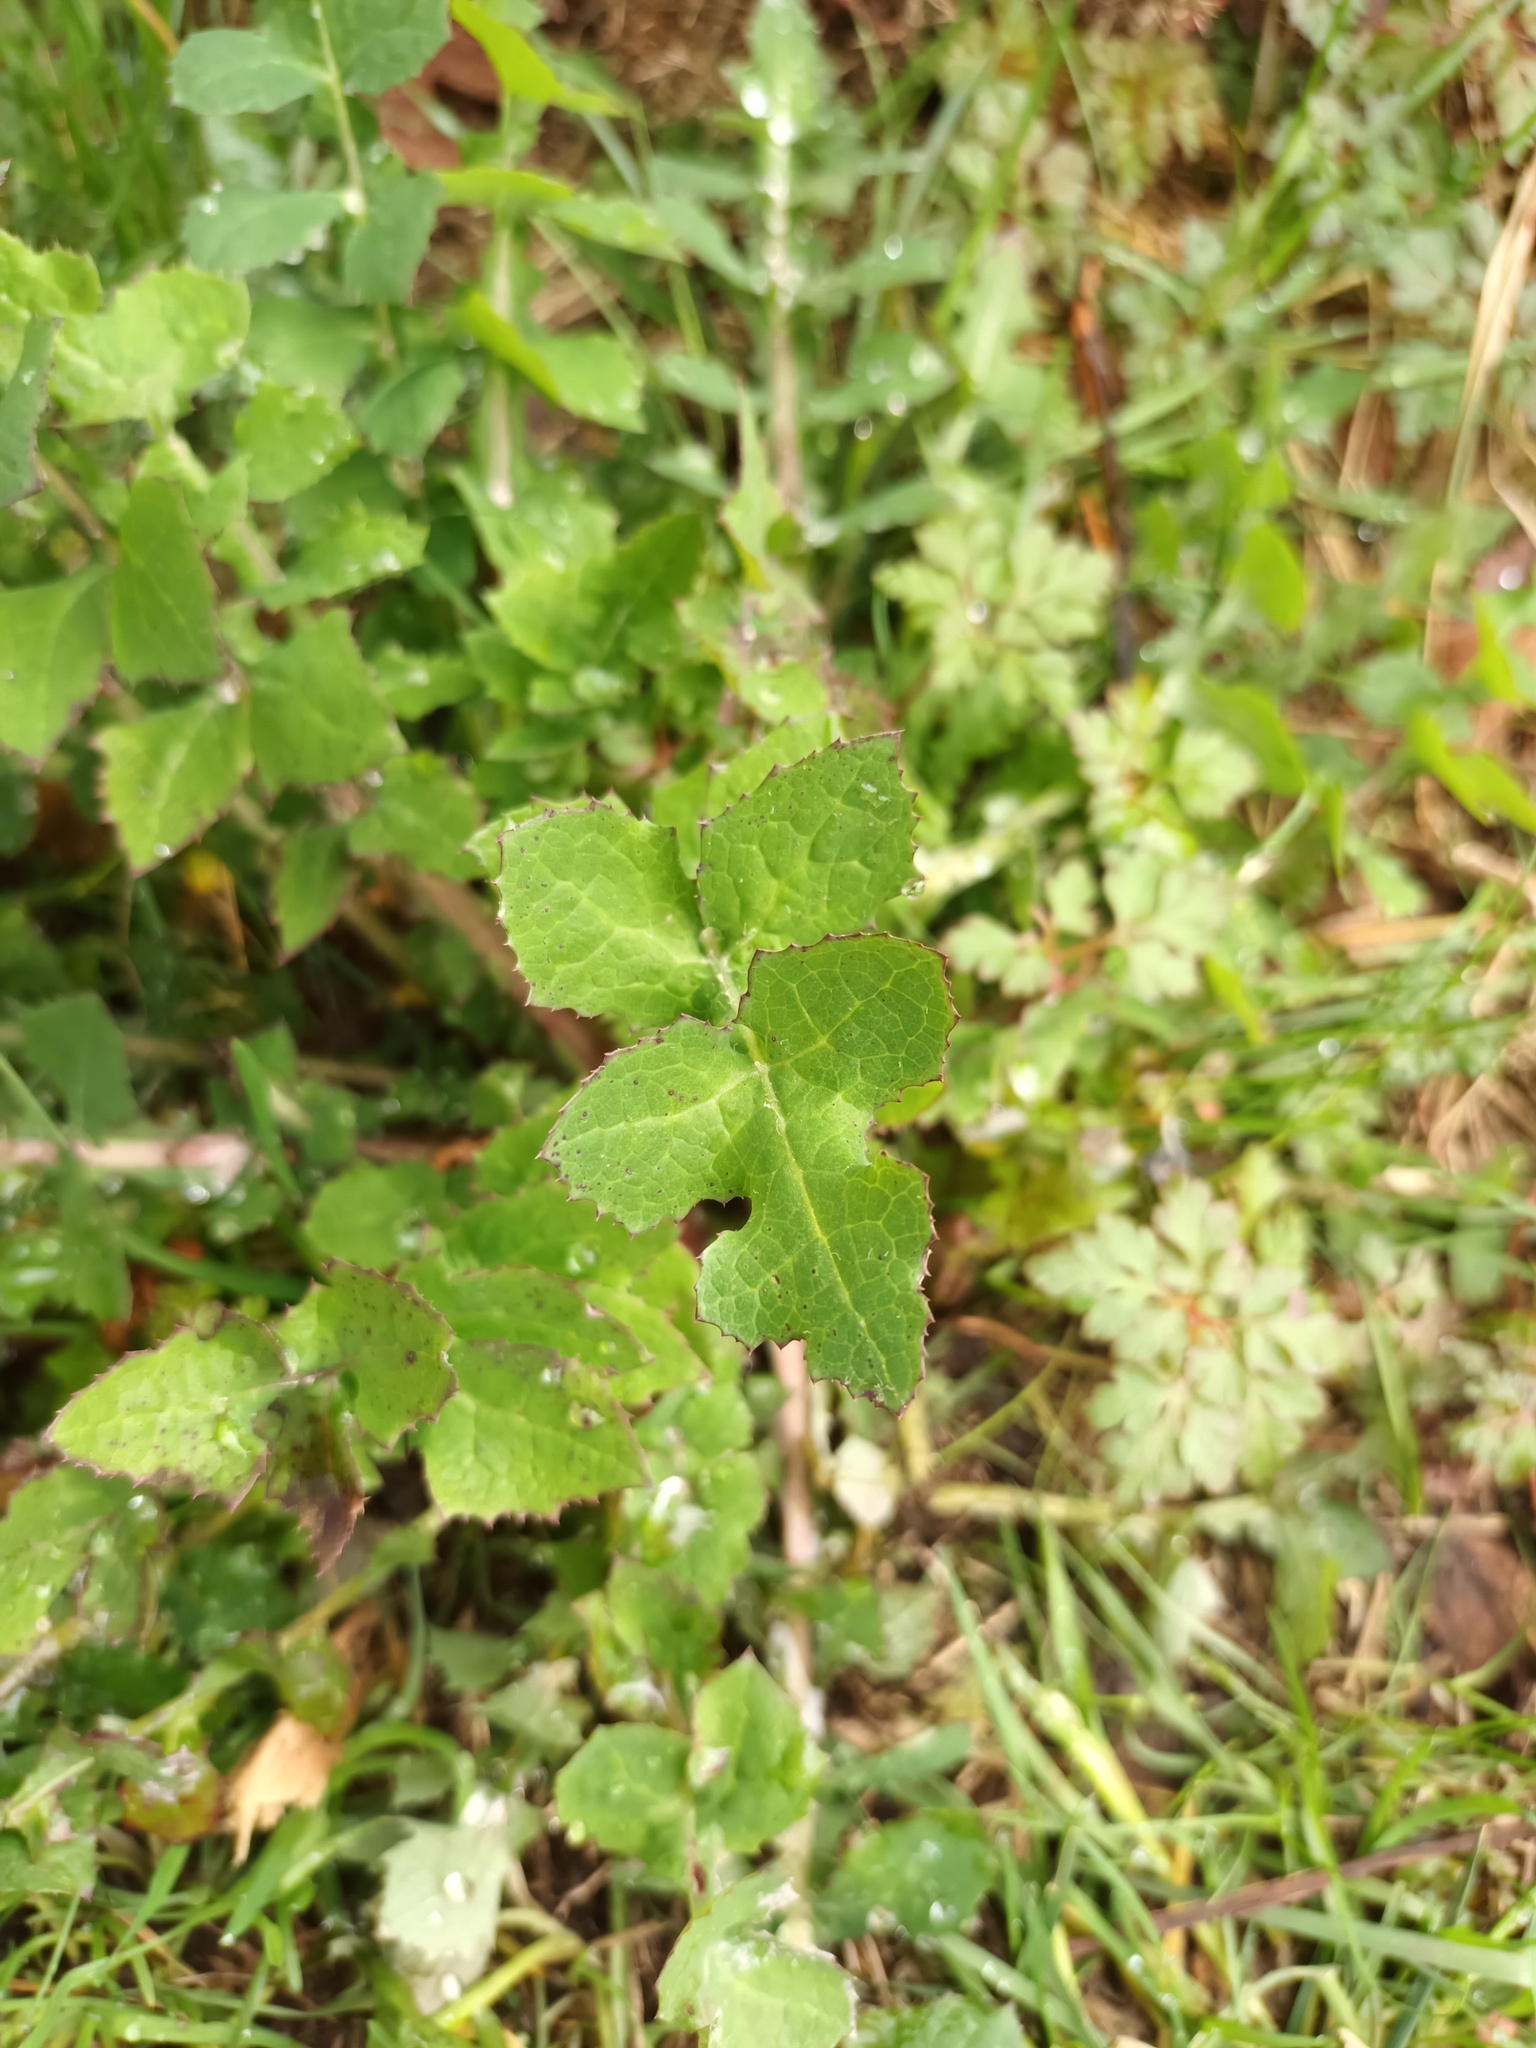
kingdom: Plantae
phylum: Tracheophyta
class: Magnoliopsida
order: Asterales
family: Asteraceae
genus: Sonchus
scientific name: Sonchus oleraceus
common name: Common sowthistle
